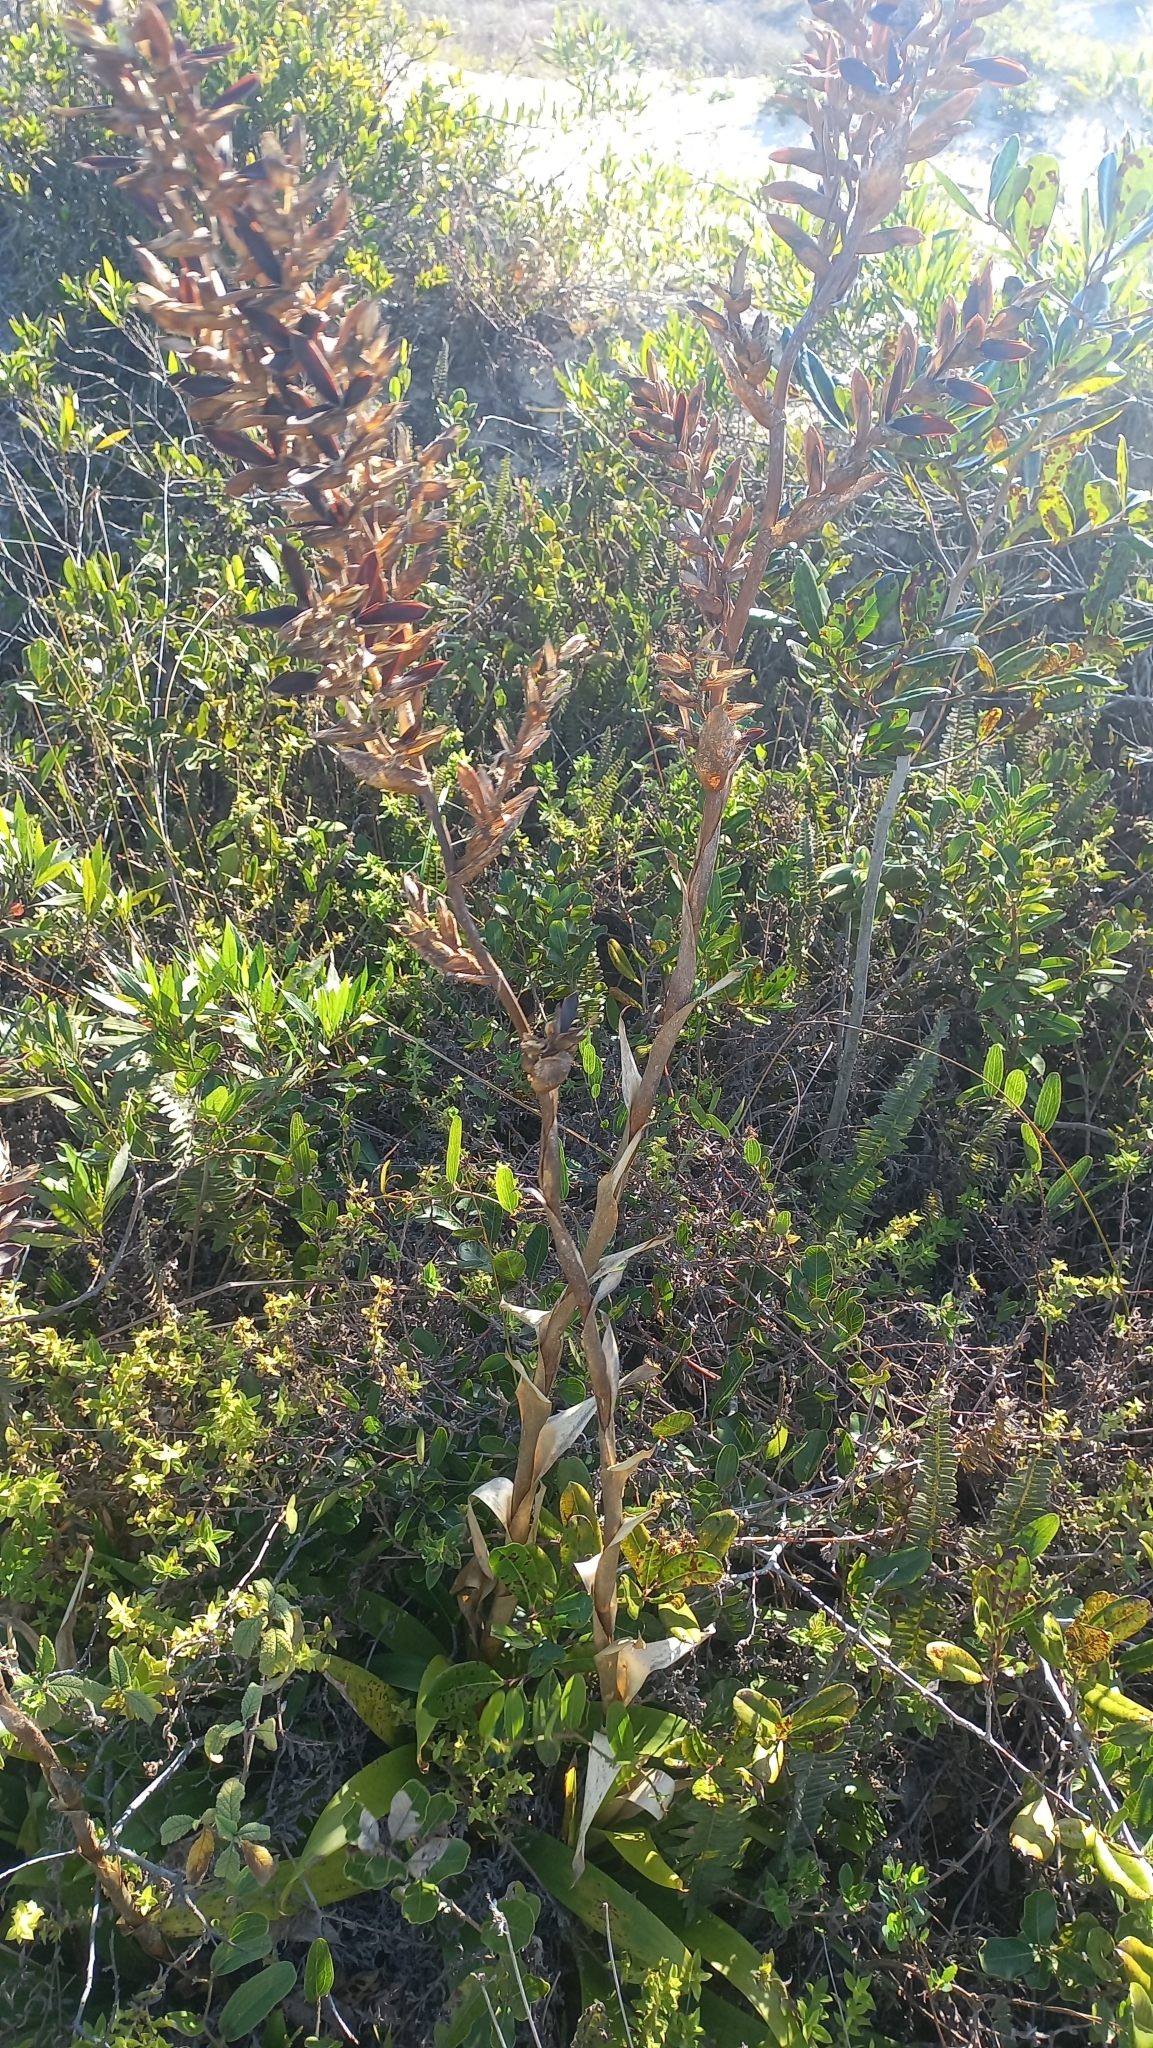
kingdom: Plantae
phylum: Tracheophyta
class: Liliopsida
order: Poales
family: Bromeliaceae
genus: Vriesea
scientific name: Vriesea friburgensis
